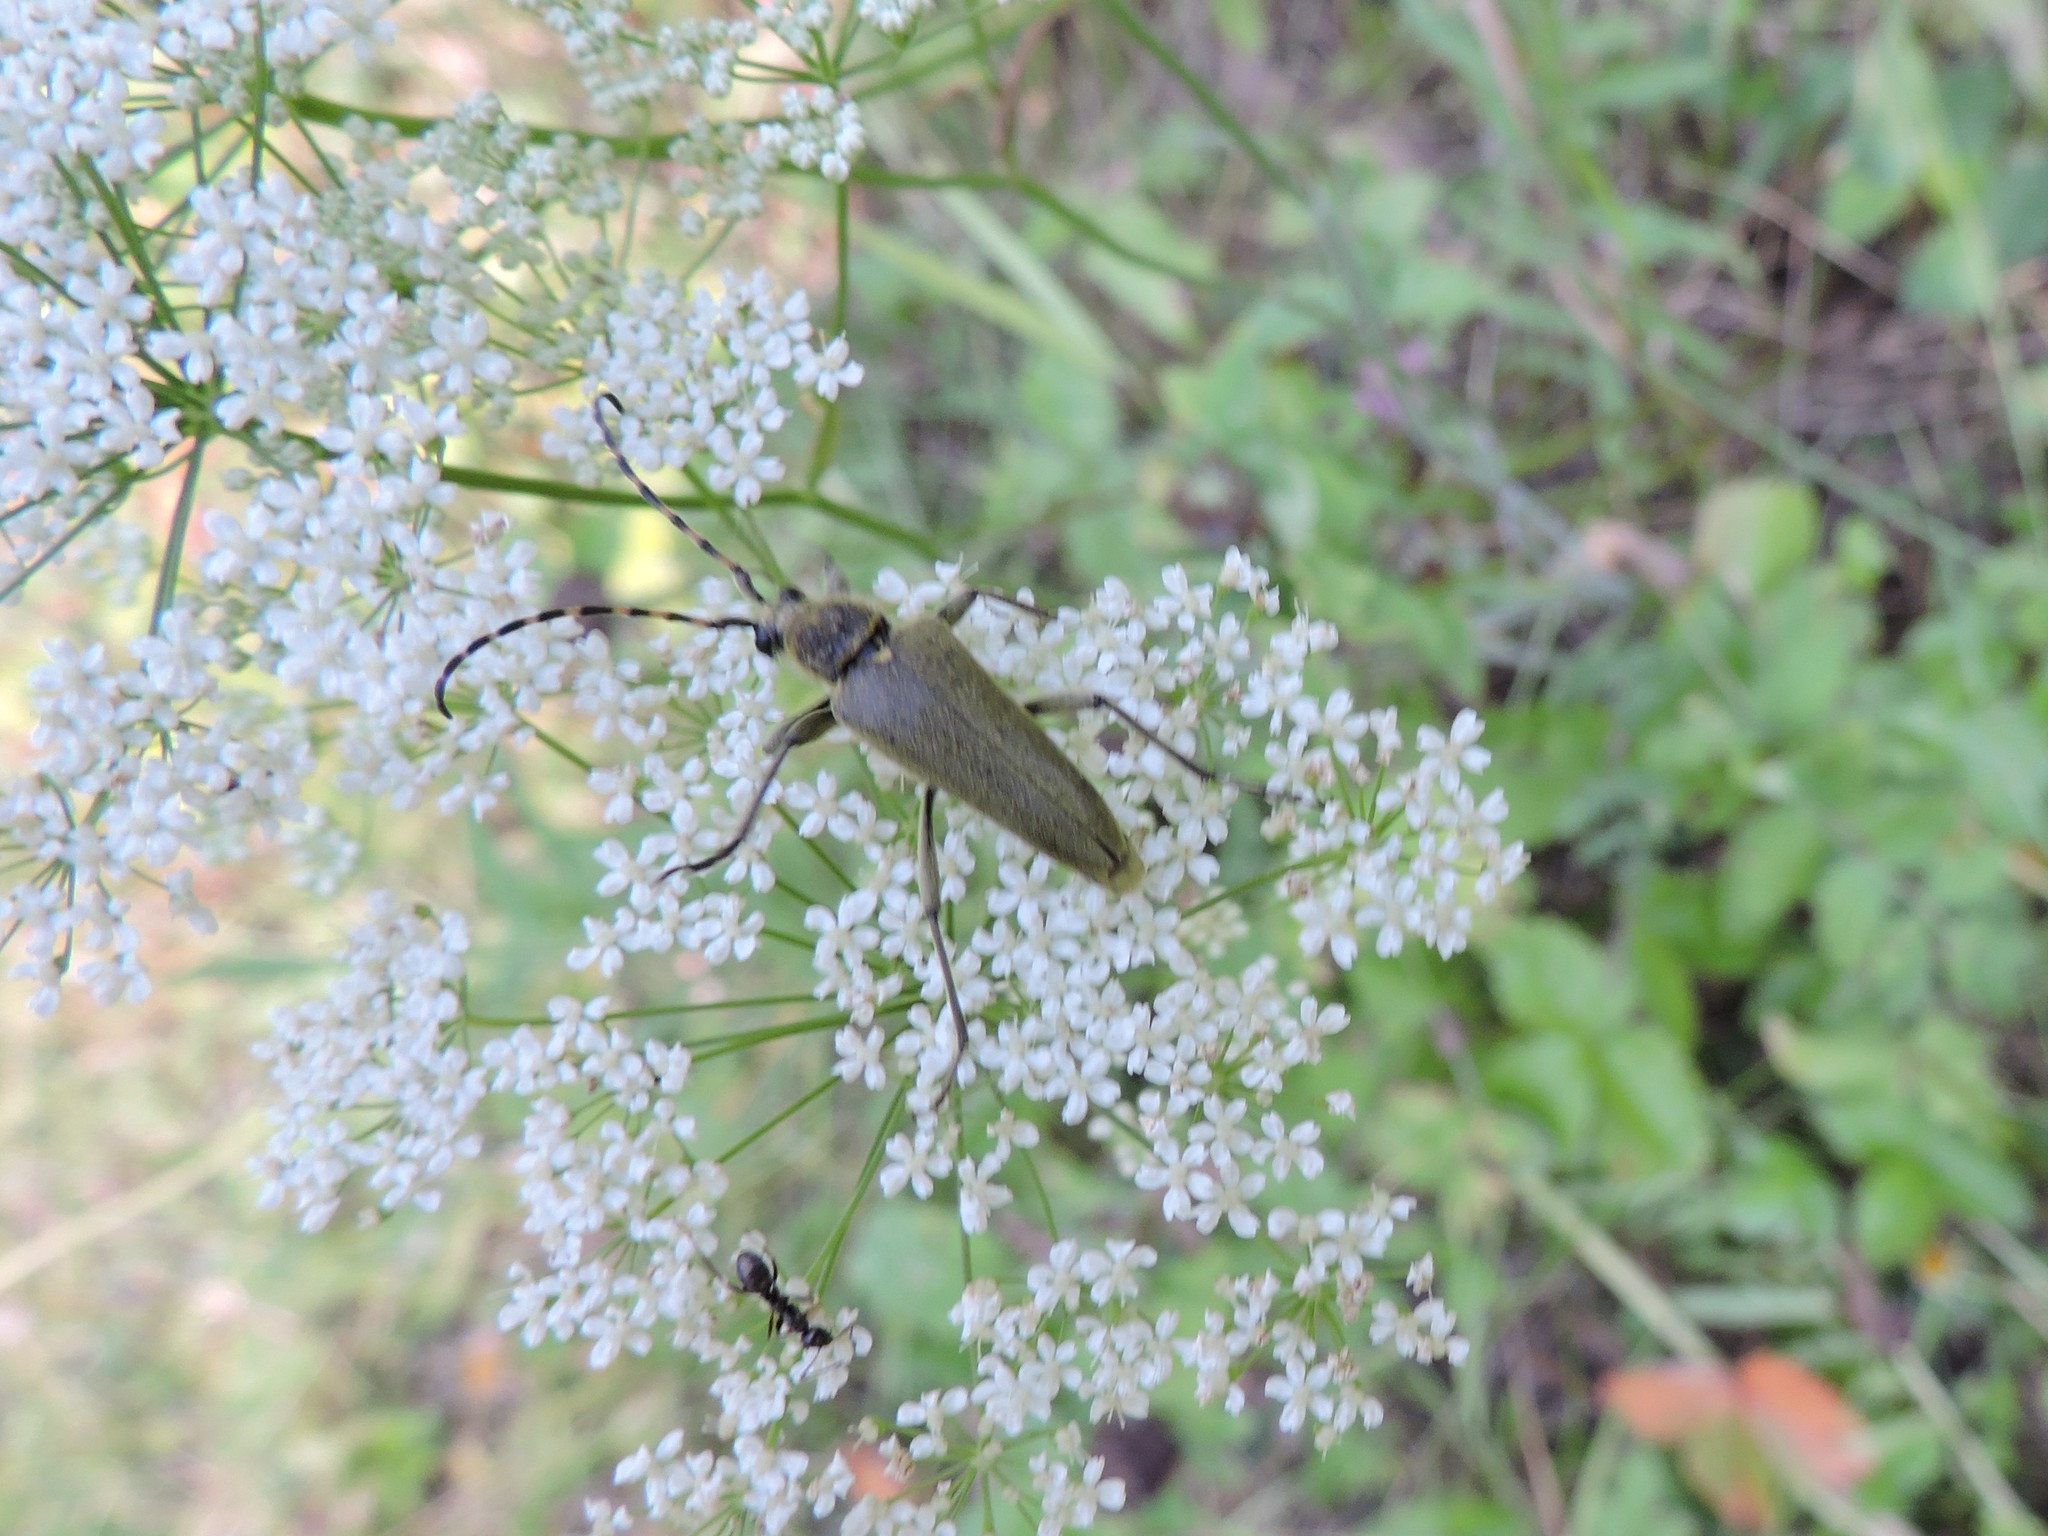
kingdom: Animalia
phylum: Arthropoda
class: Insecta
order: Coleoptera
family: Cerambycidae
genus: Lepturobosca
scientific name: Lepturobosca virens
